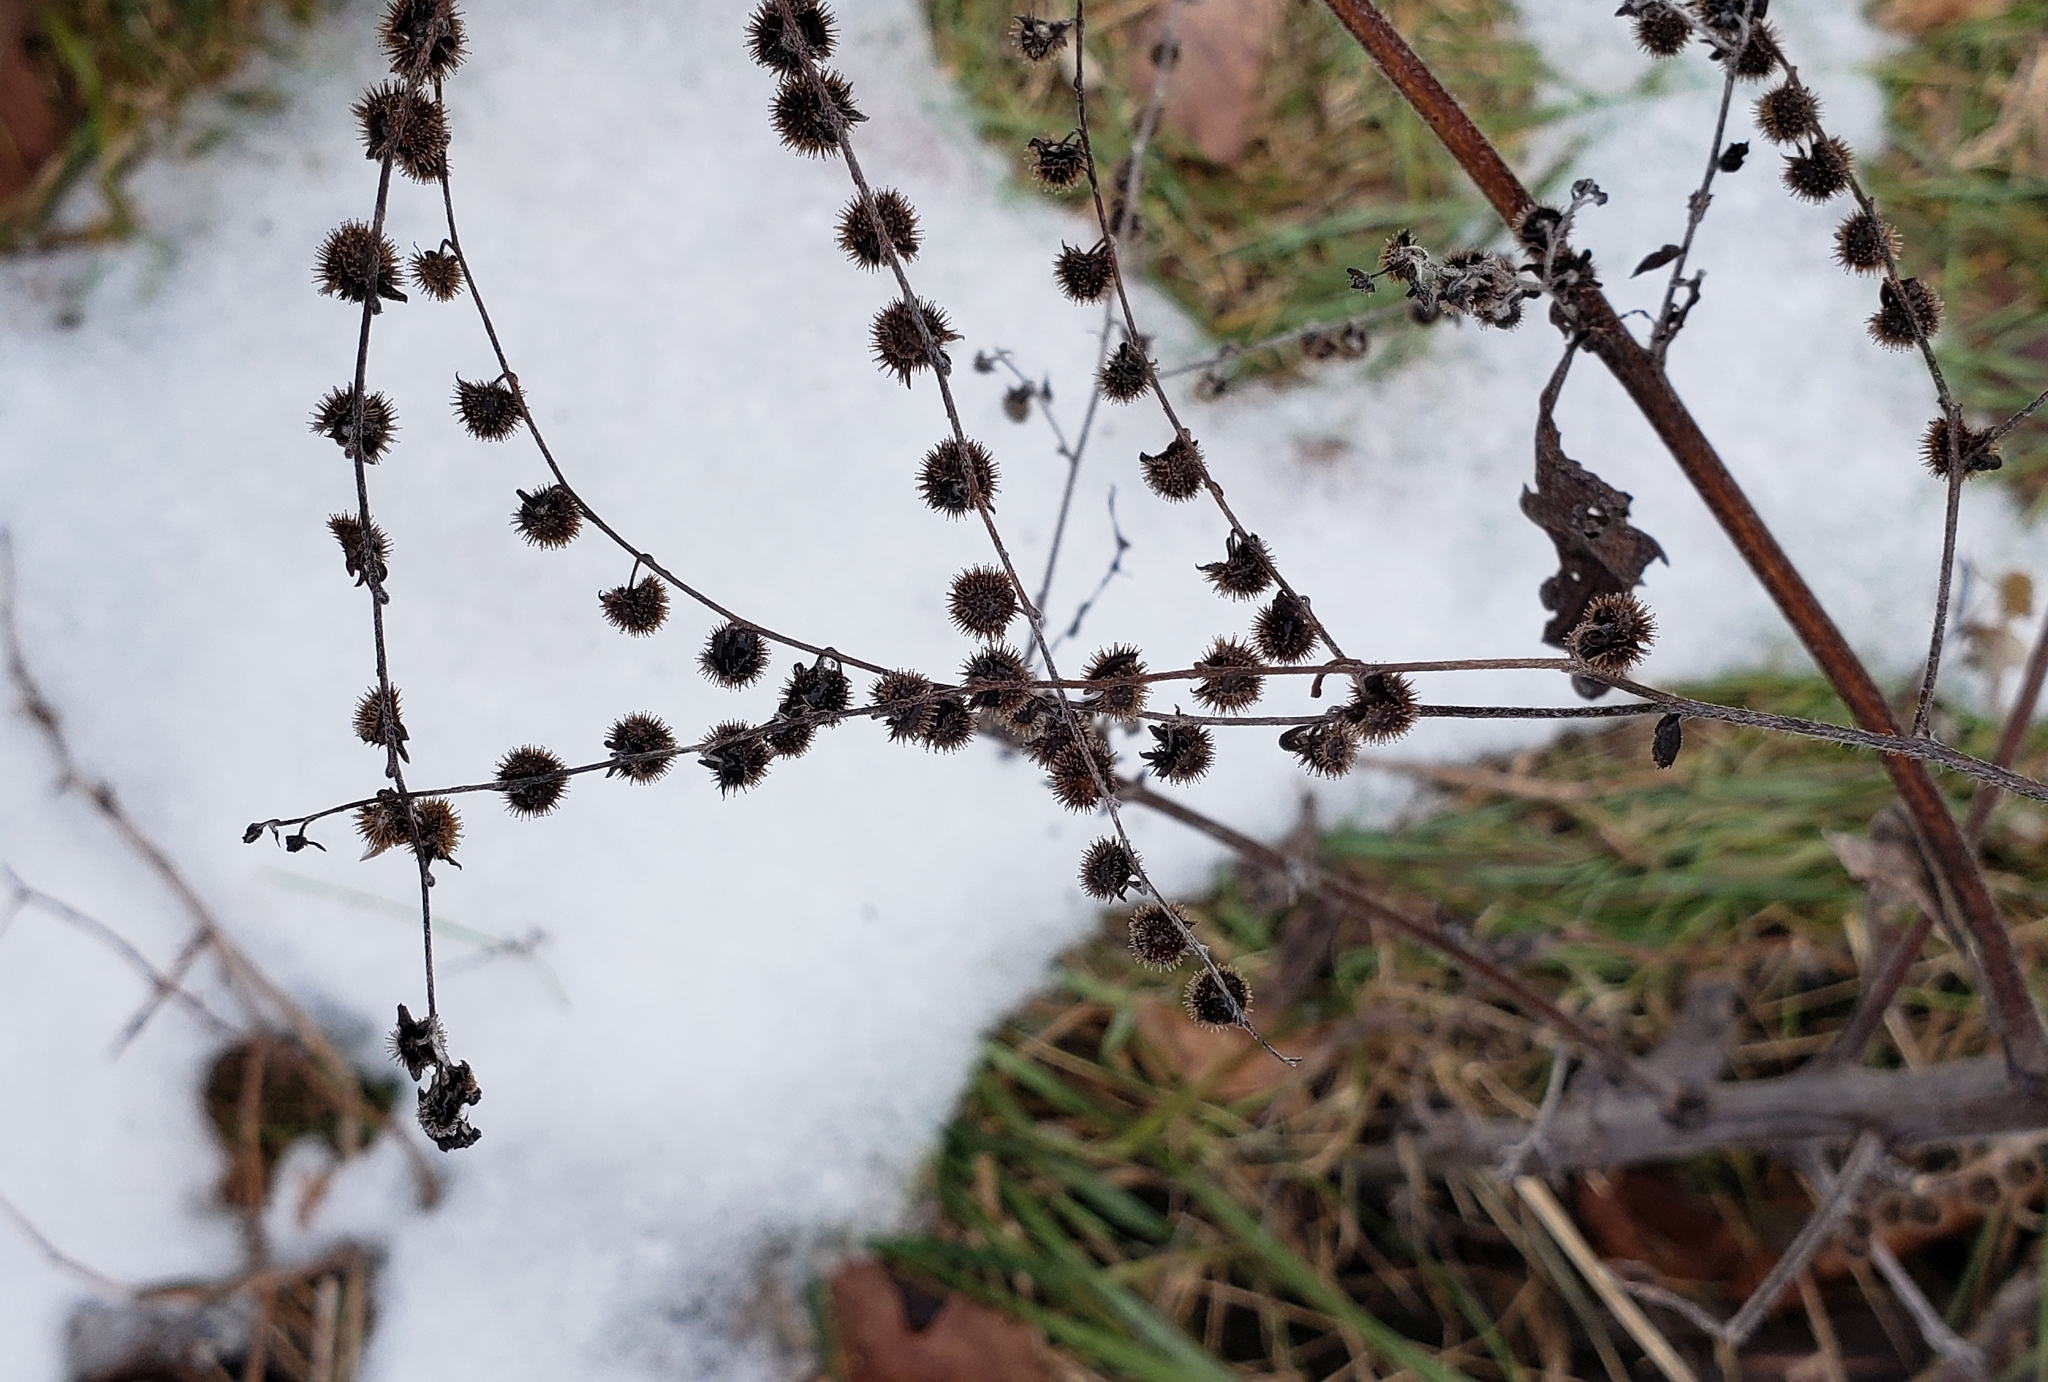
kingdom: Plantae
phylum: Tracheophyta
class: Magnoliopsida
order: Boraginales
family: Boraginaceae
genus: Hackelia
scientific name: Hackelia virginiana
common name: Beggar's-lice
